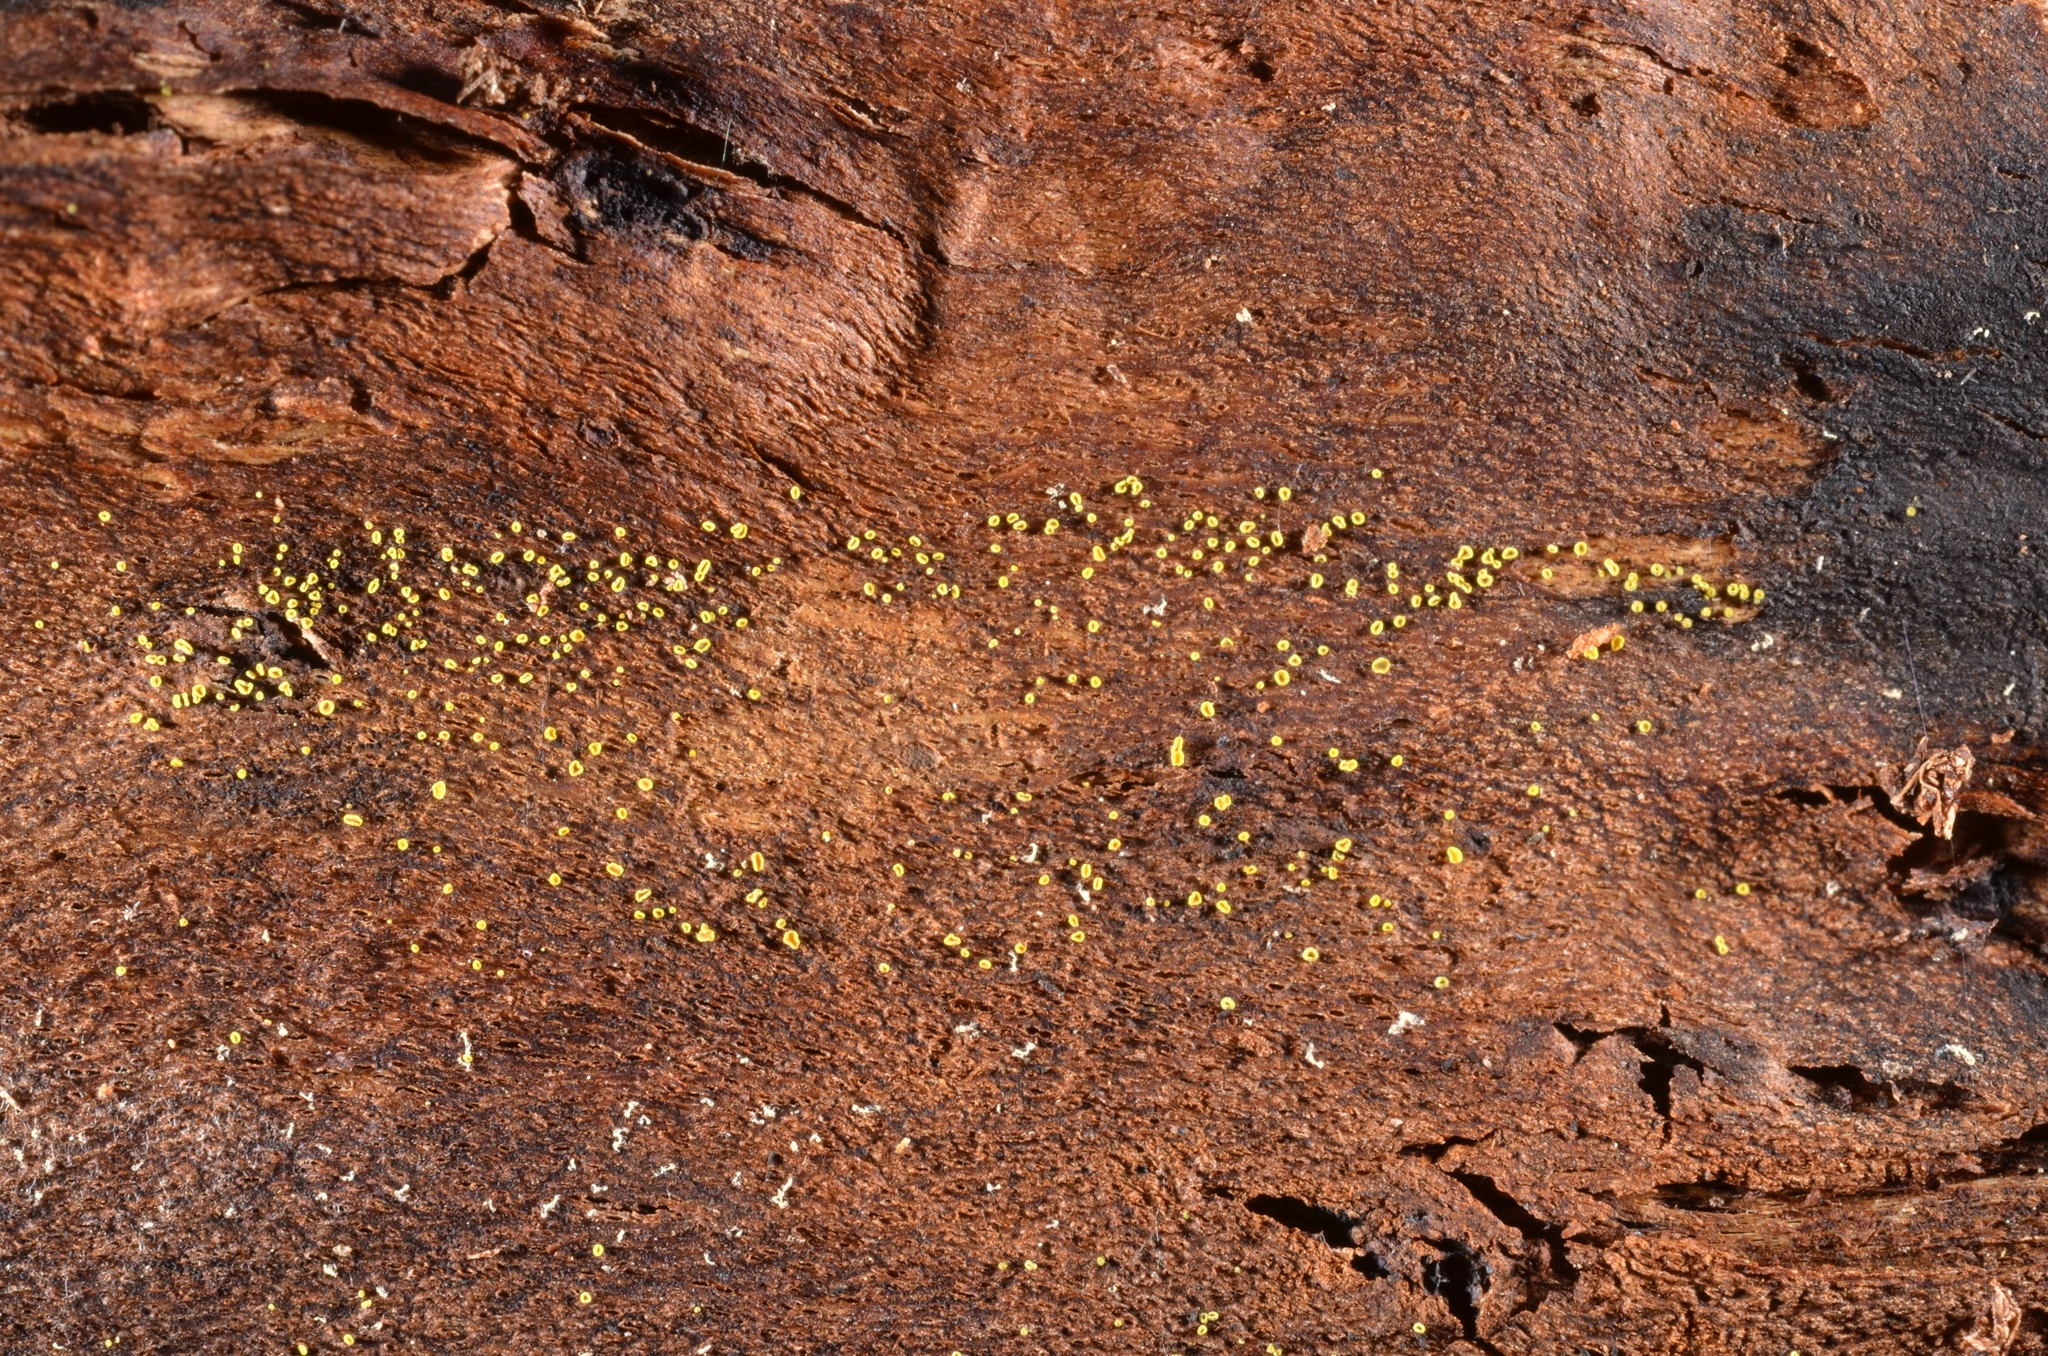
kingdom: Fungi
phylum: Ascomycota
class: Leotiomycetes
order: Helotiales
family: Hamatocanthoscyphaceae
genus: Hamatocanthoscypha
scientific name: Hamatocanthoscypha uncipila
